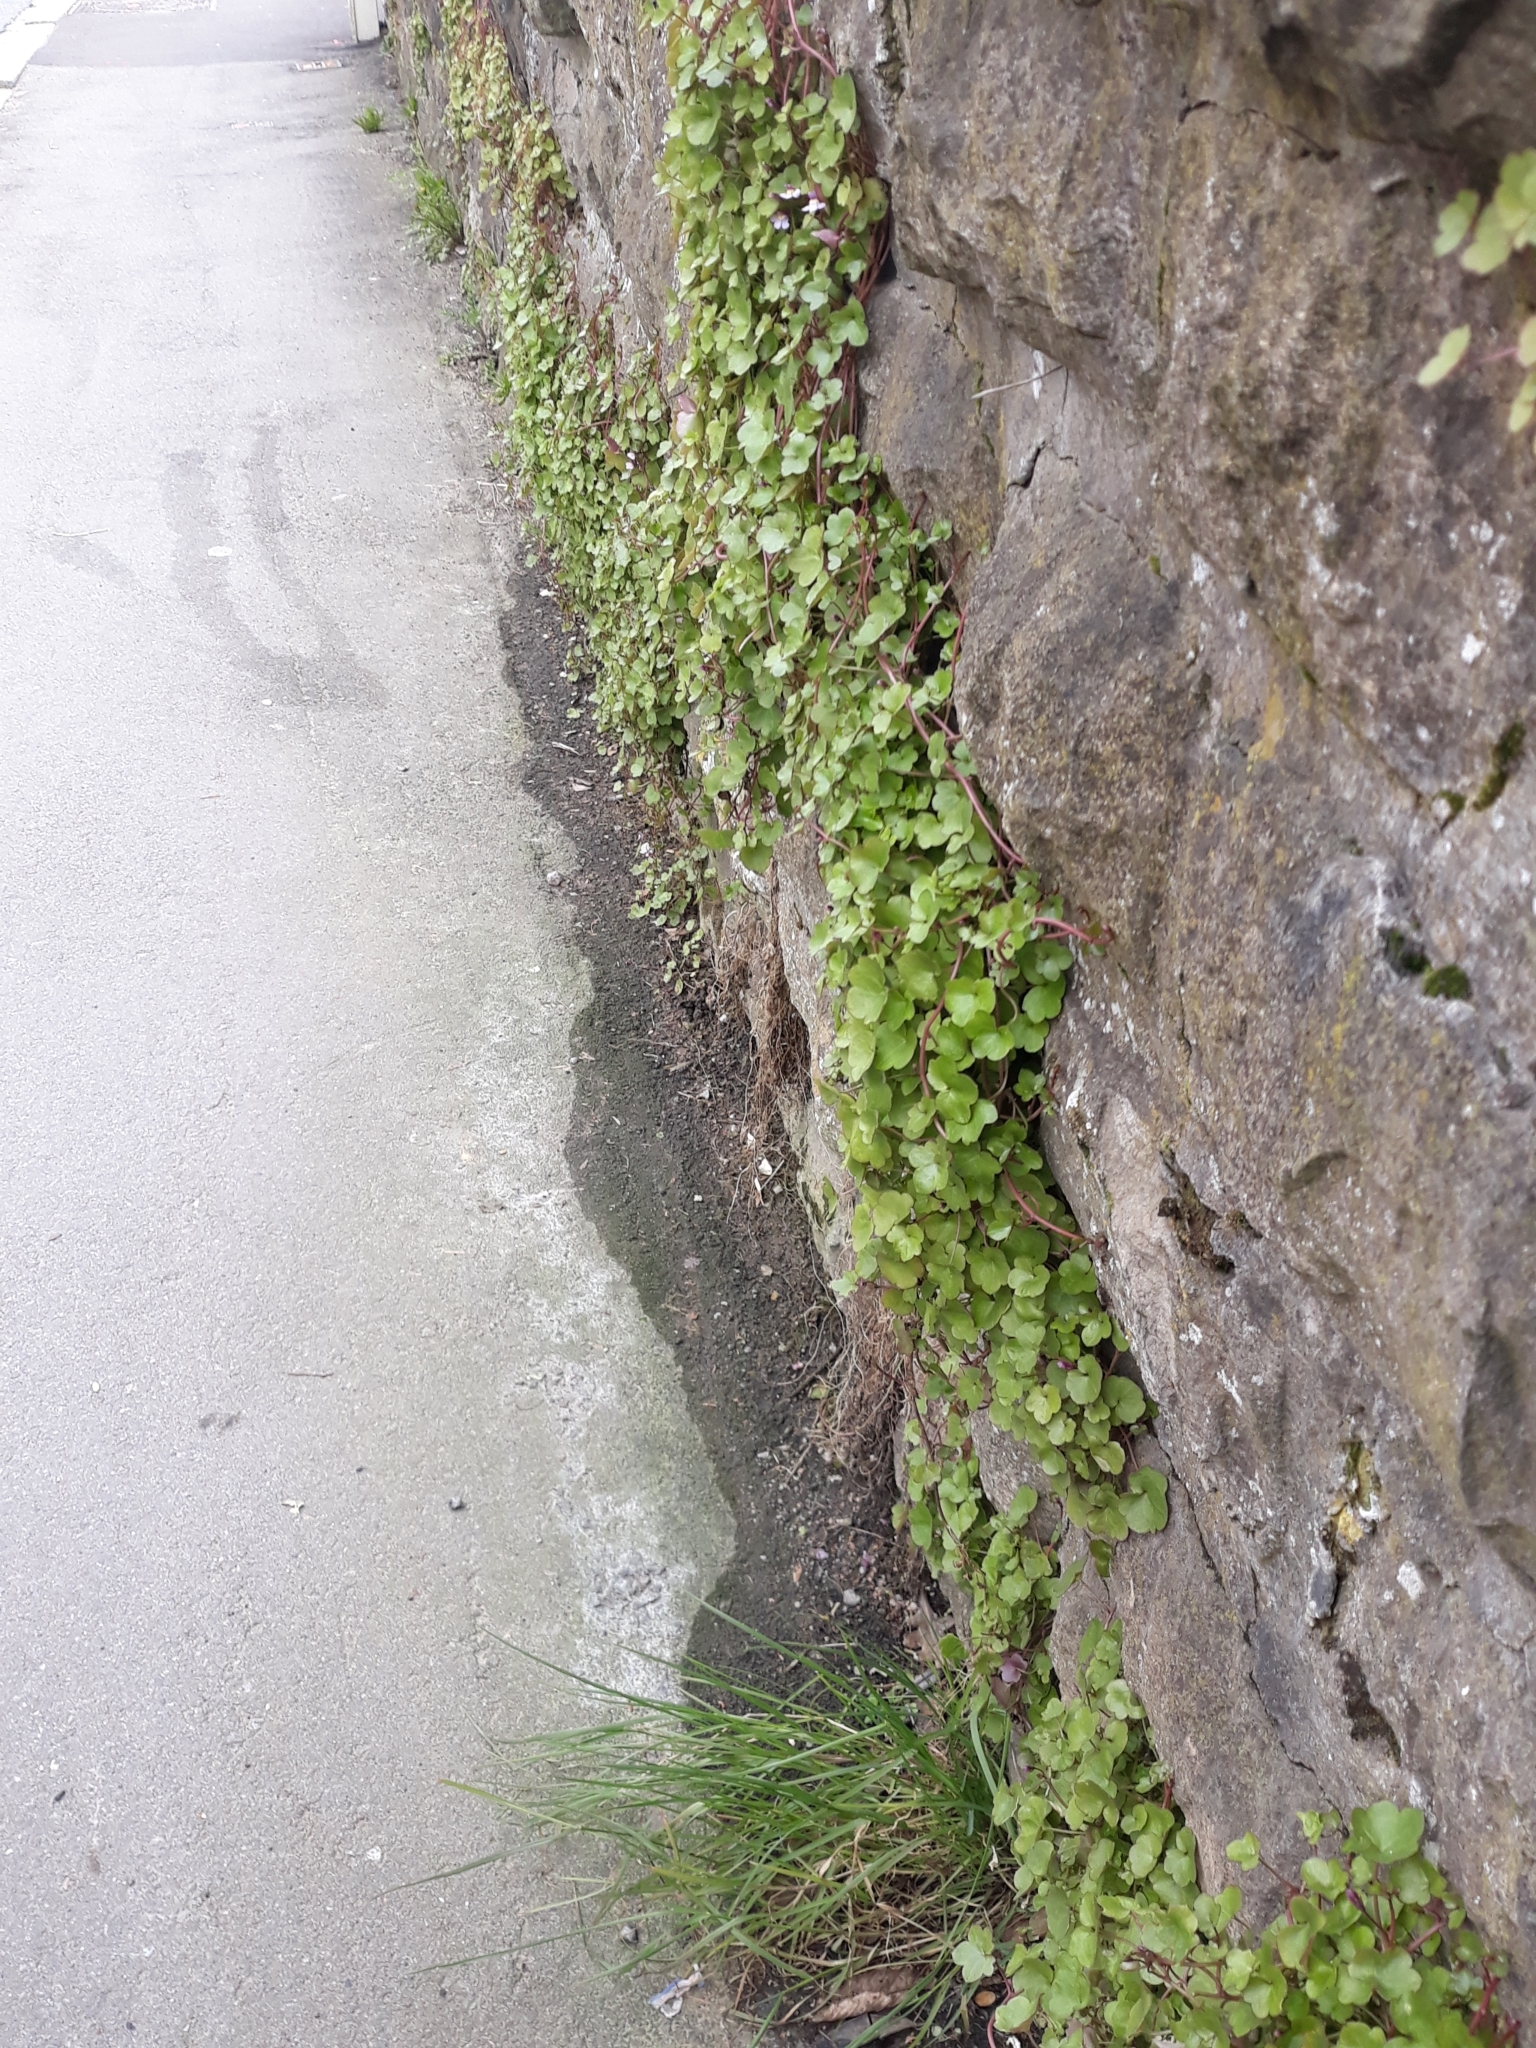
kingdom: Plantae
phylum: Tracheophyta
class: Magnoliopsida
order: Lamiales
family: Plantaginaceae
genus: Cymbalaria
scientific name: Cymbalaria muralis
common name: Ivy-leaved toadflax
